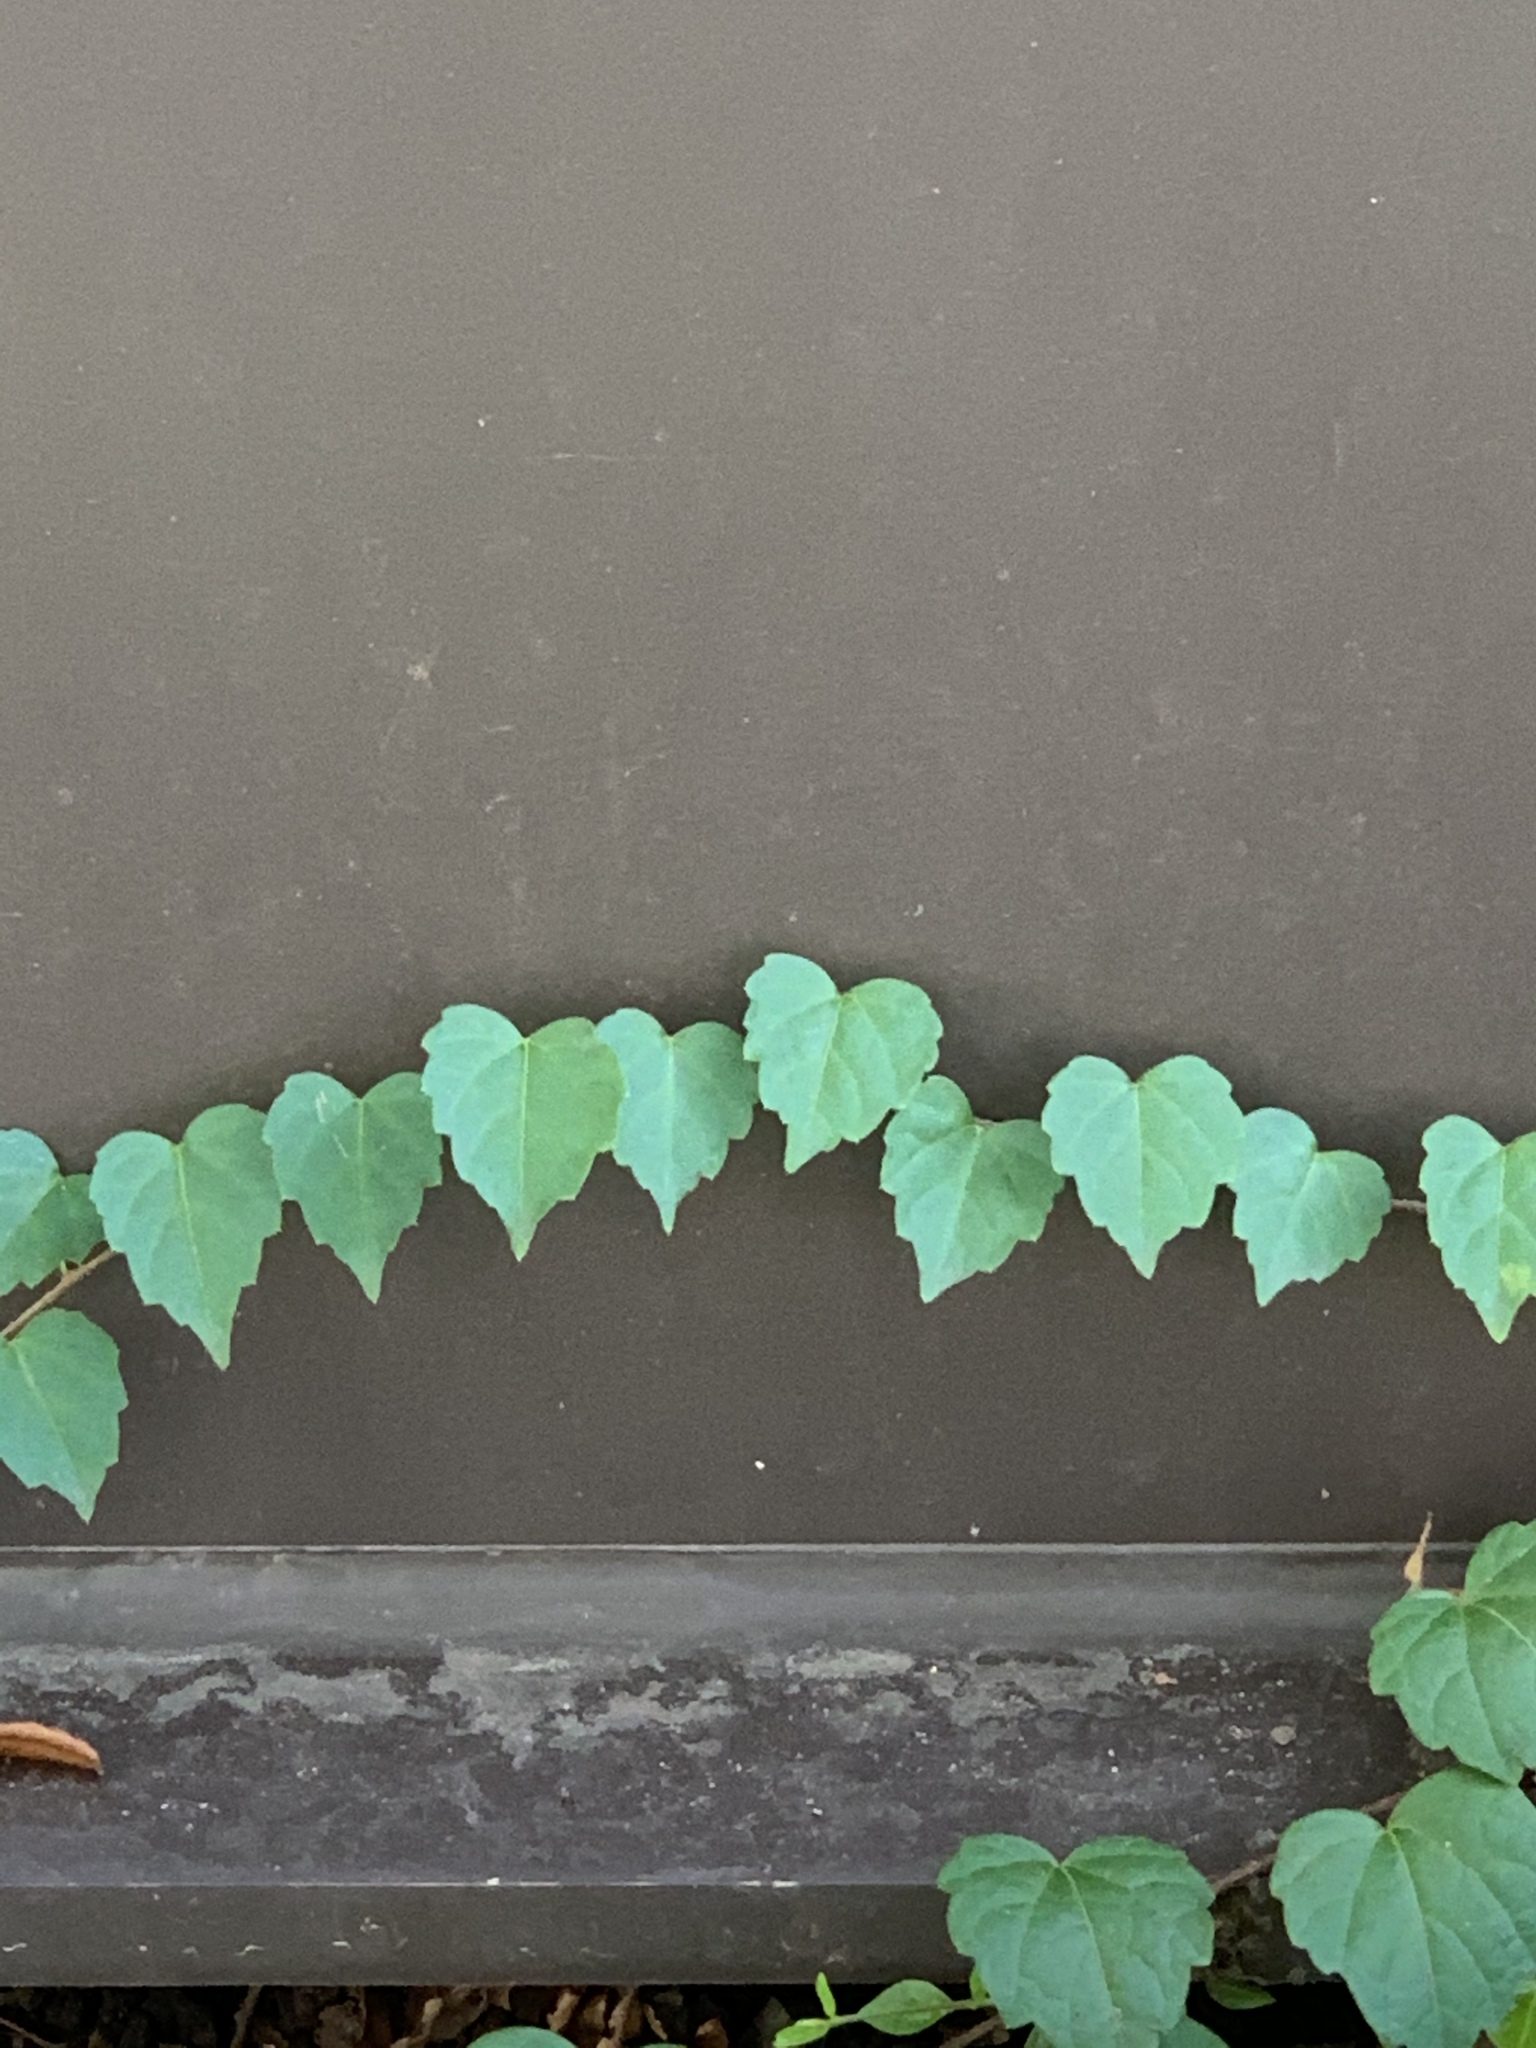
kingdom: Plantae
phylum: Tracheophyta
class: Magnoliopsida
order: Vitales
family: Vitaceae
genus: Parthenocissus
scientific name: Parthenocissus tricuspidata
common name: Boston ivy
